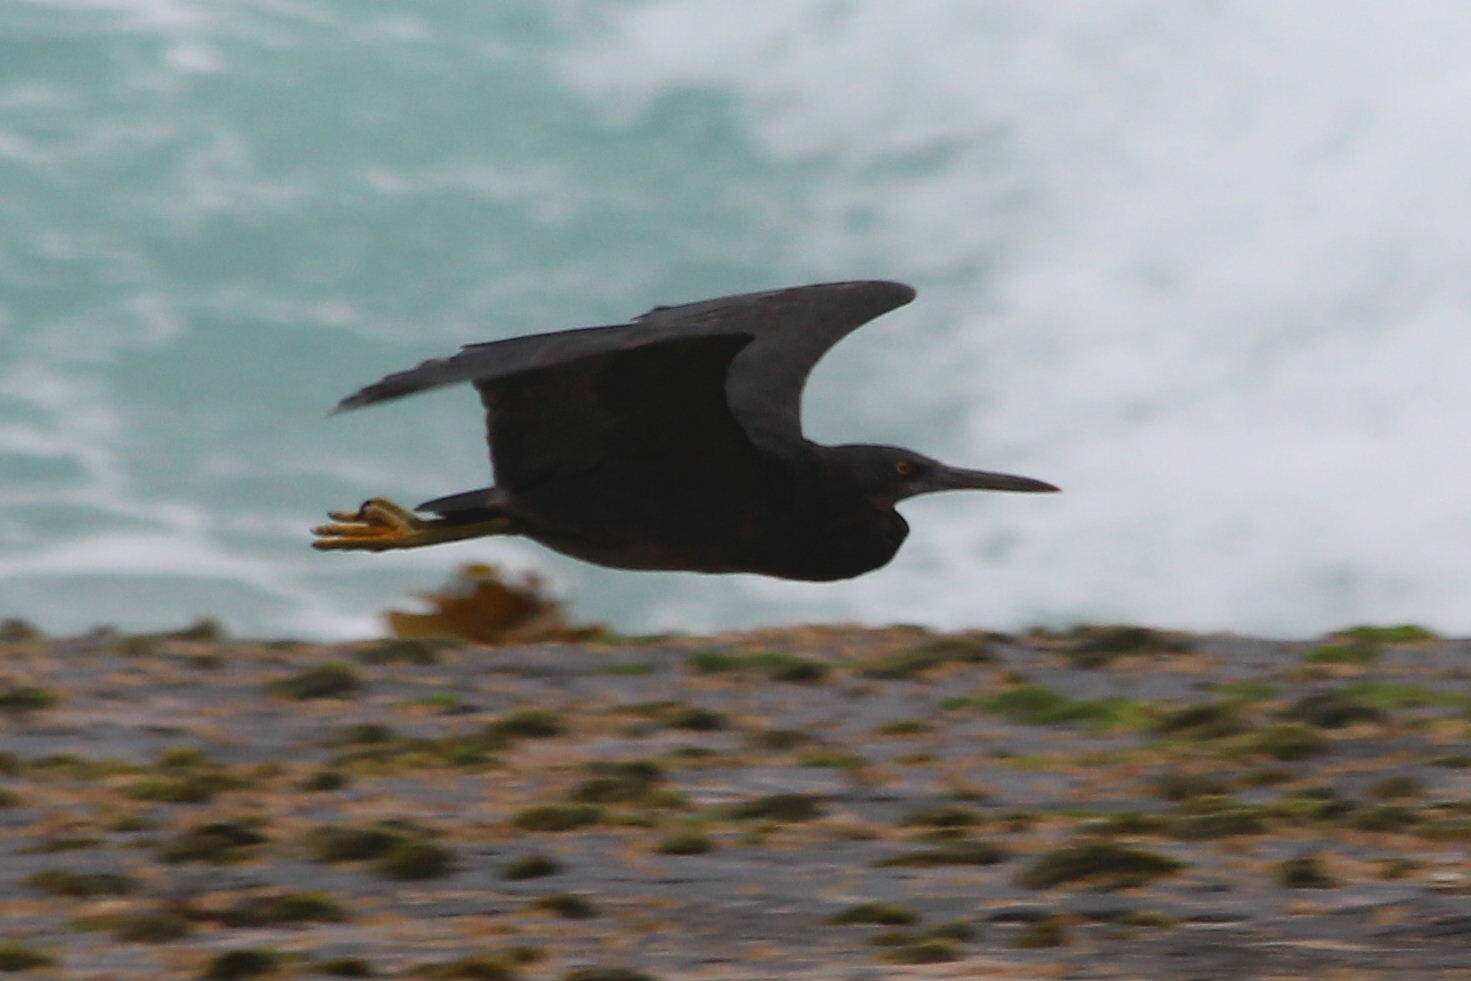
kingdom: Animalia
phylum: Chordata
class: Aves
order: Pelecaniformes
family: Ardeidae
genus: Egretta
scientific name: Egretta sacra
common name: Pacific reef heron
